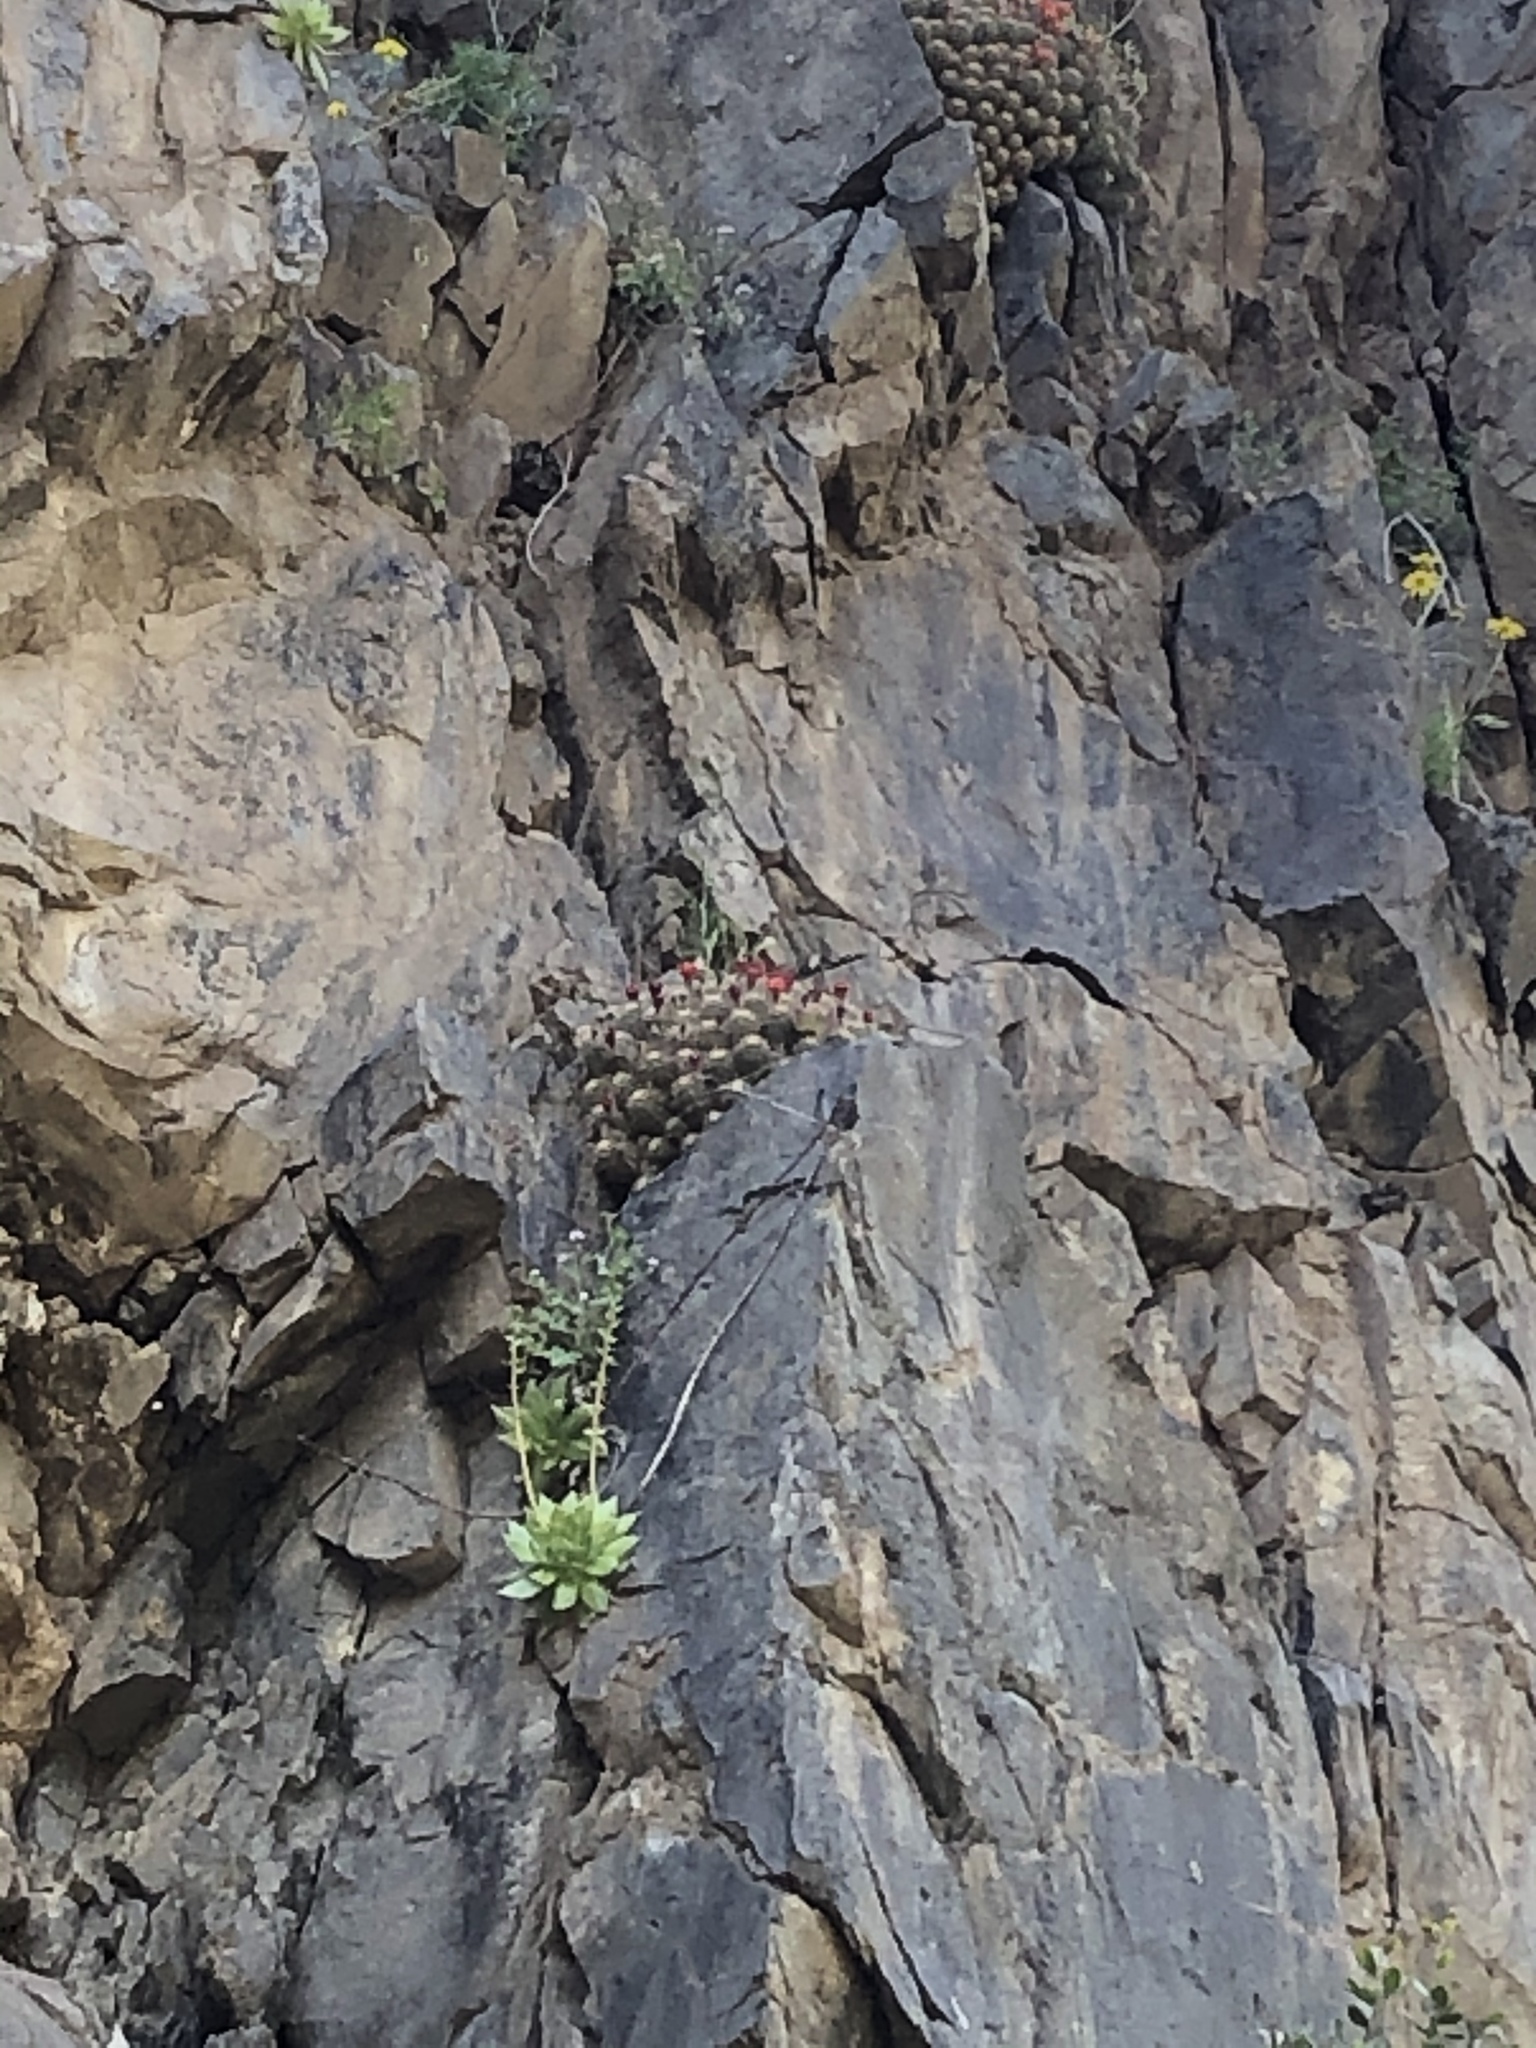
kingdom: Plantae
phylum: Tracheophyta
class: Magnoliopsida
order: Caryophyllales
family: Cactaceae
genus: Echinocereus
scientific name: Echinocereus pacificus
